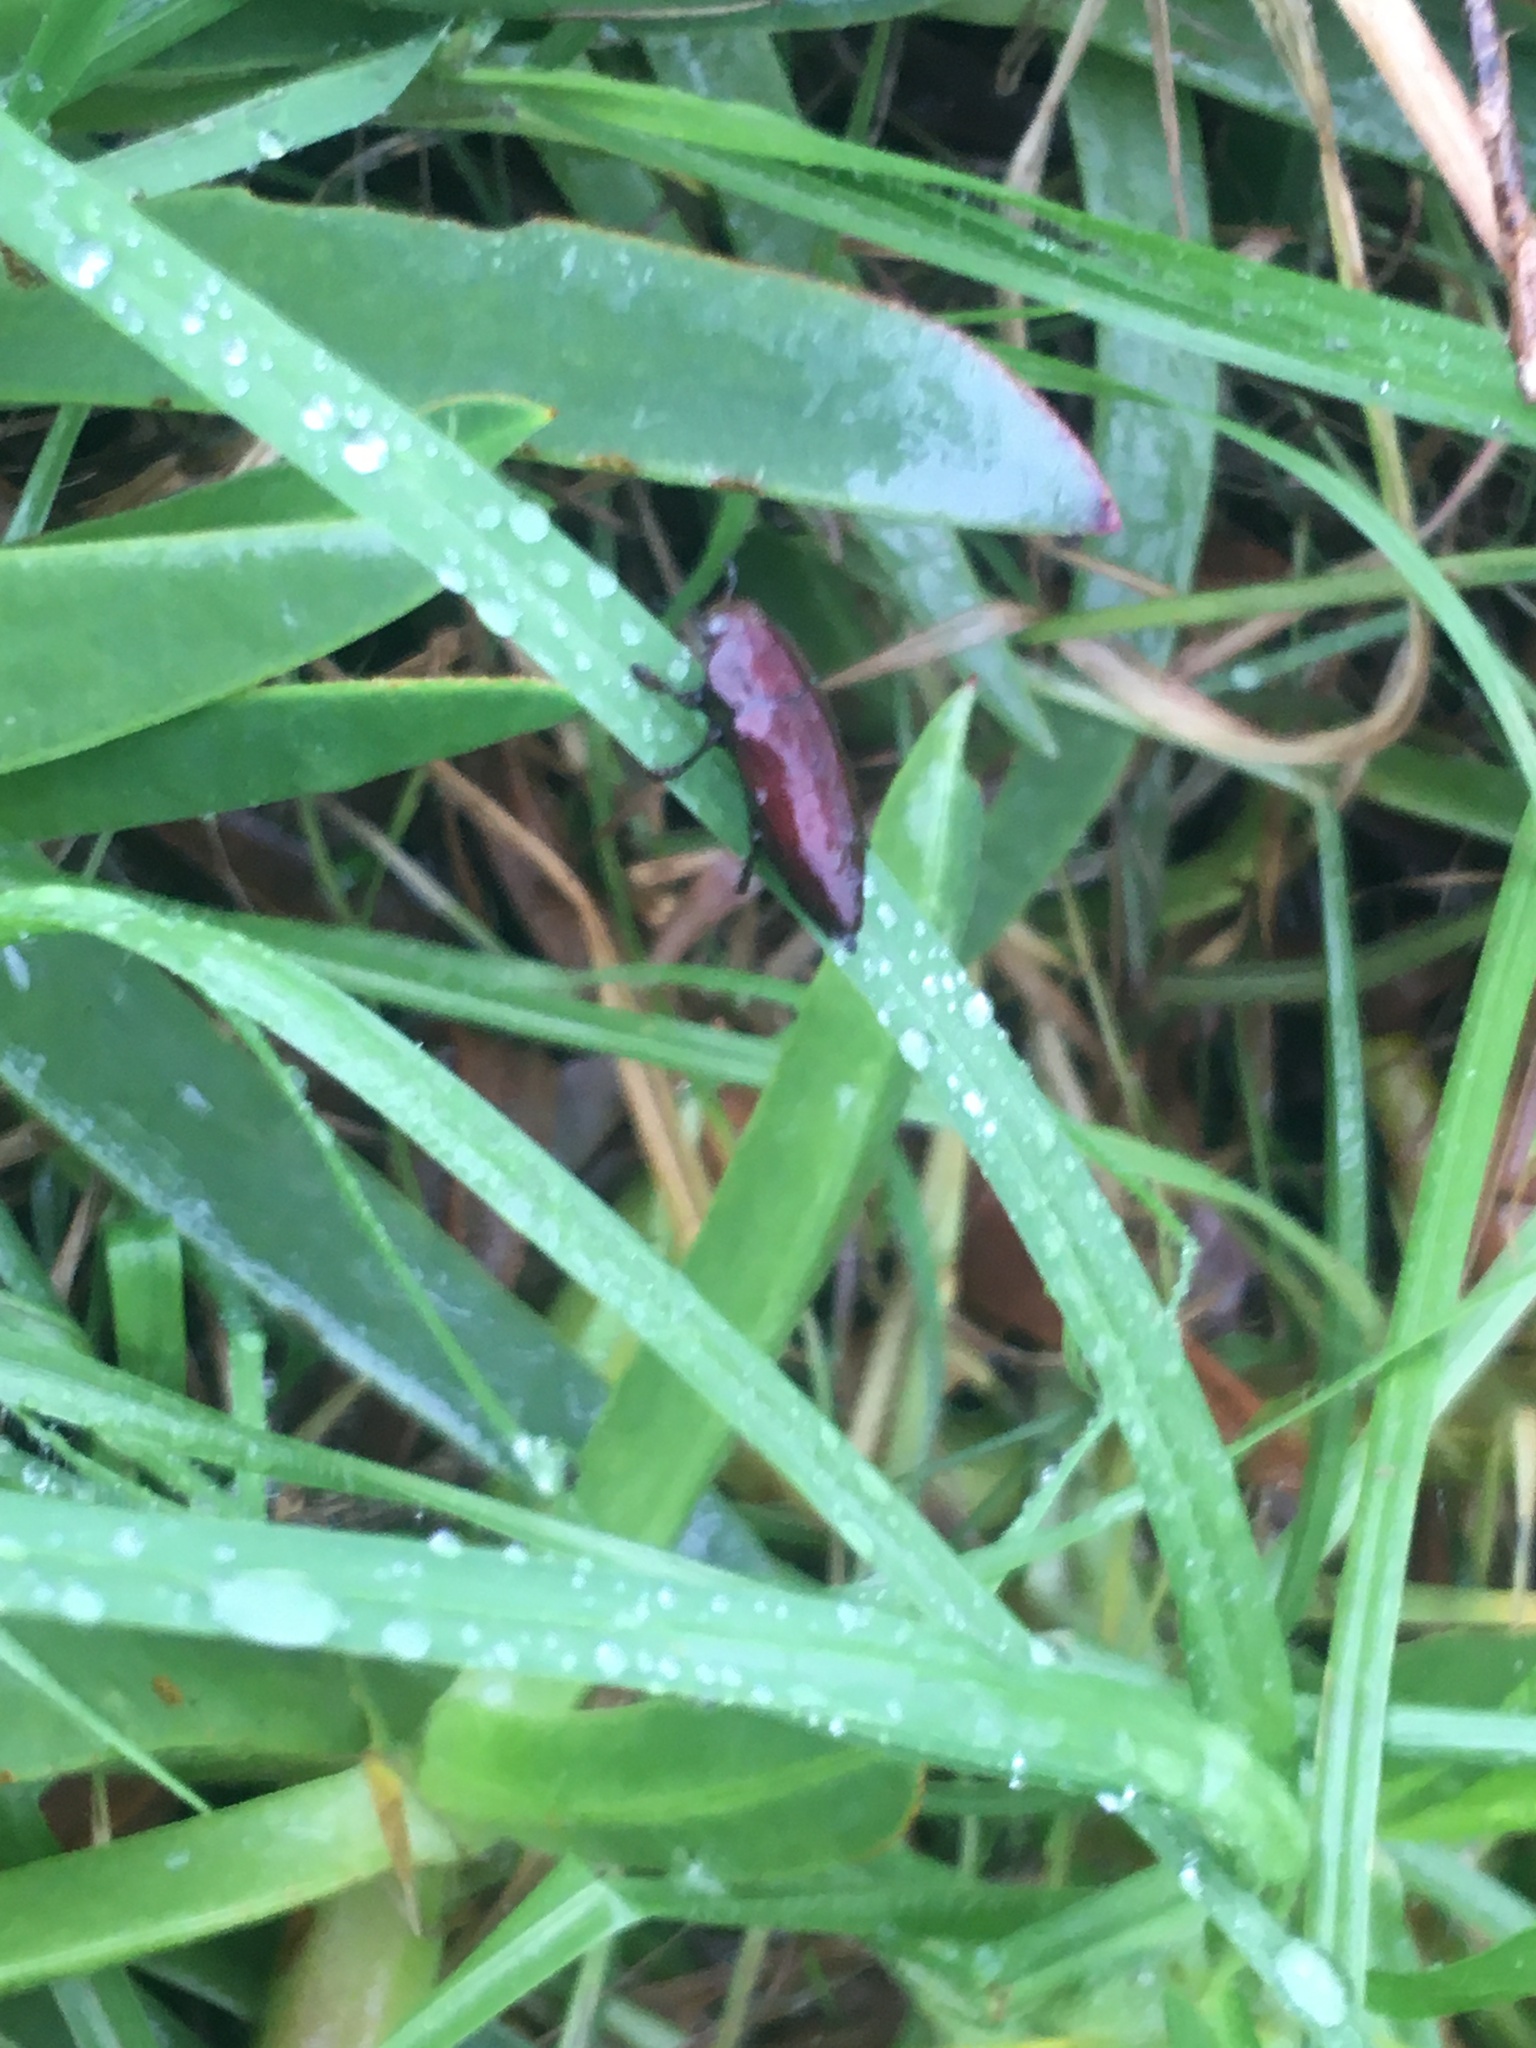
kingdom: Animalia
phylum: Arthropoda
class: Insecta
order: Coleoptera
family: Buprestidae
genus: Oedisterna
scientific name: Oedisterna cuprea
